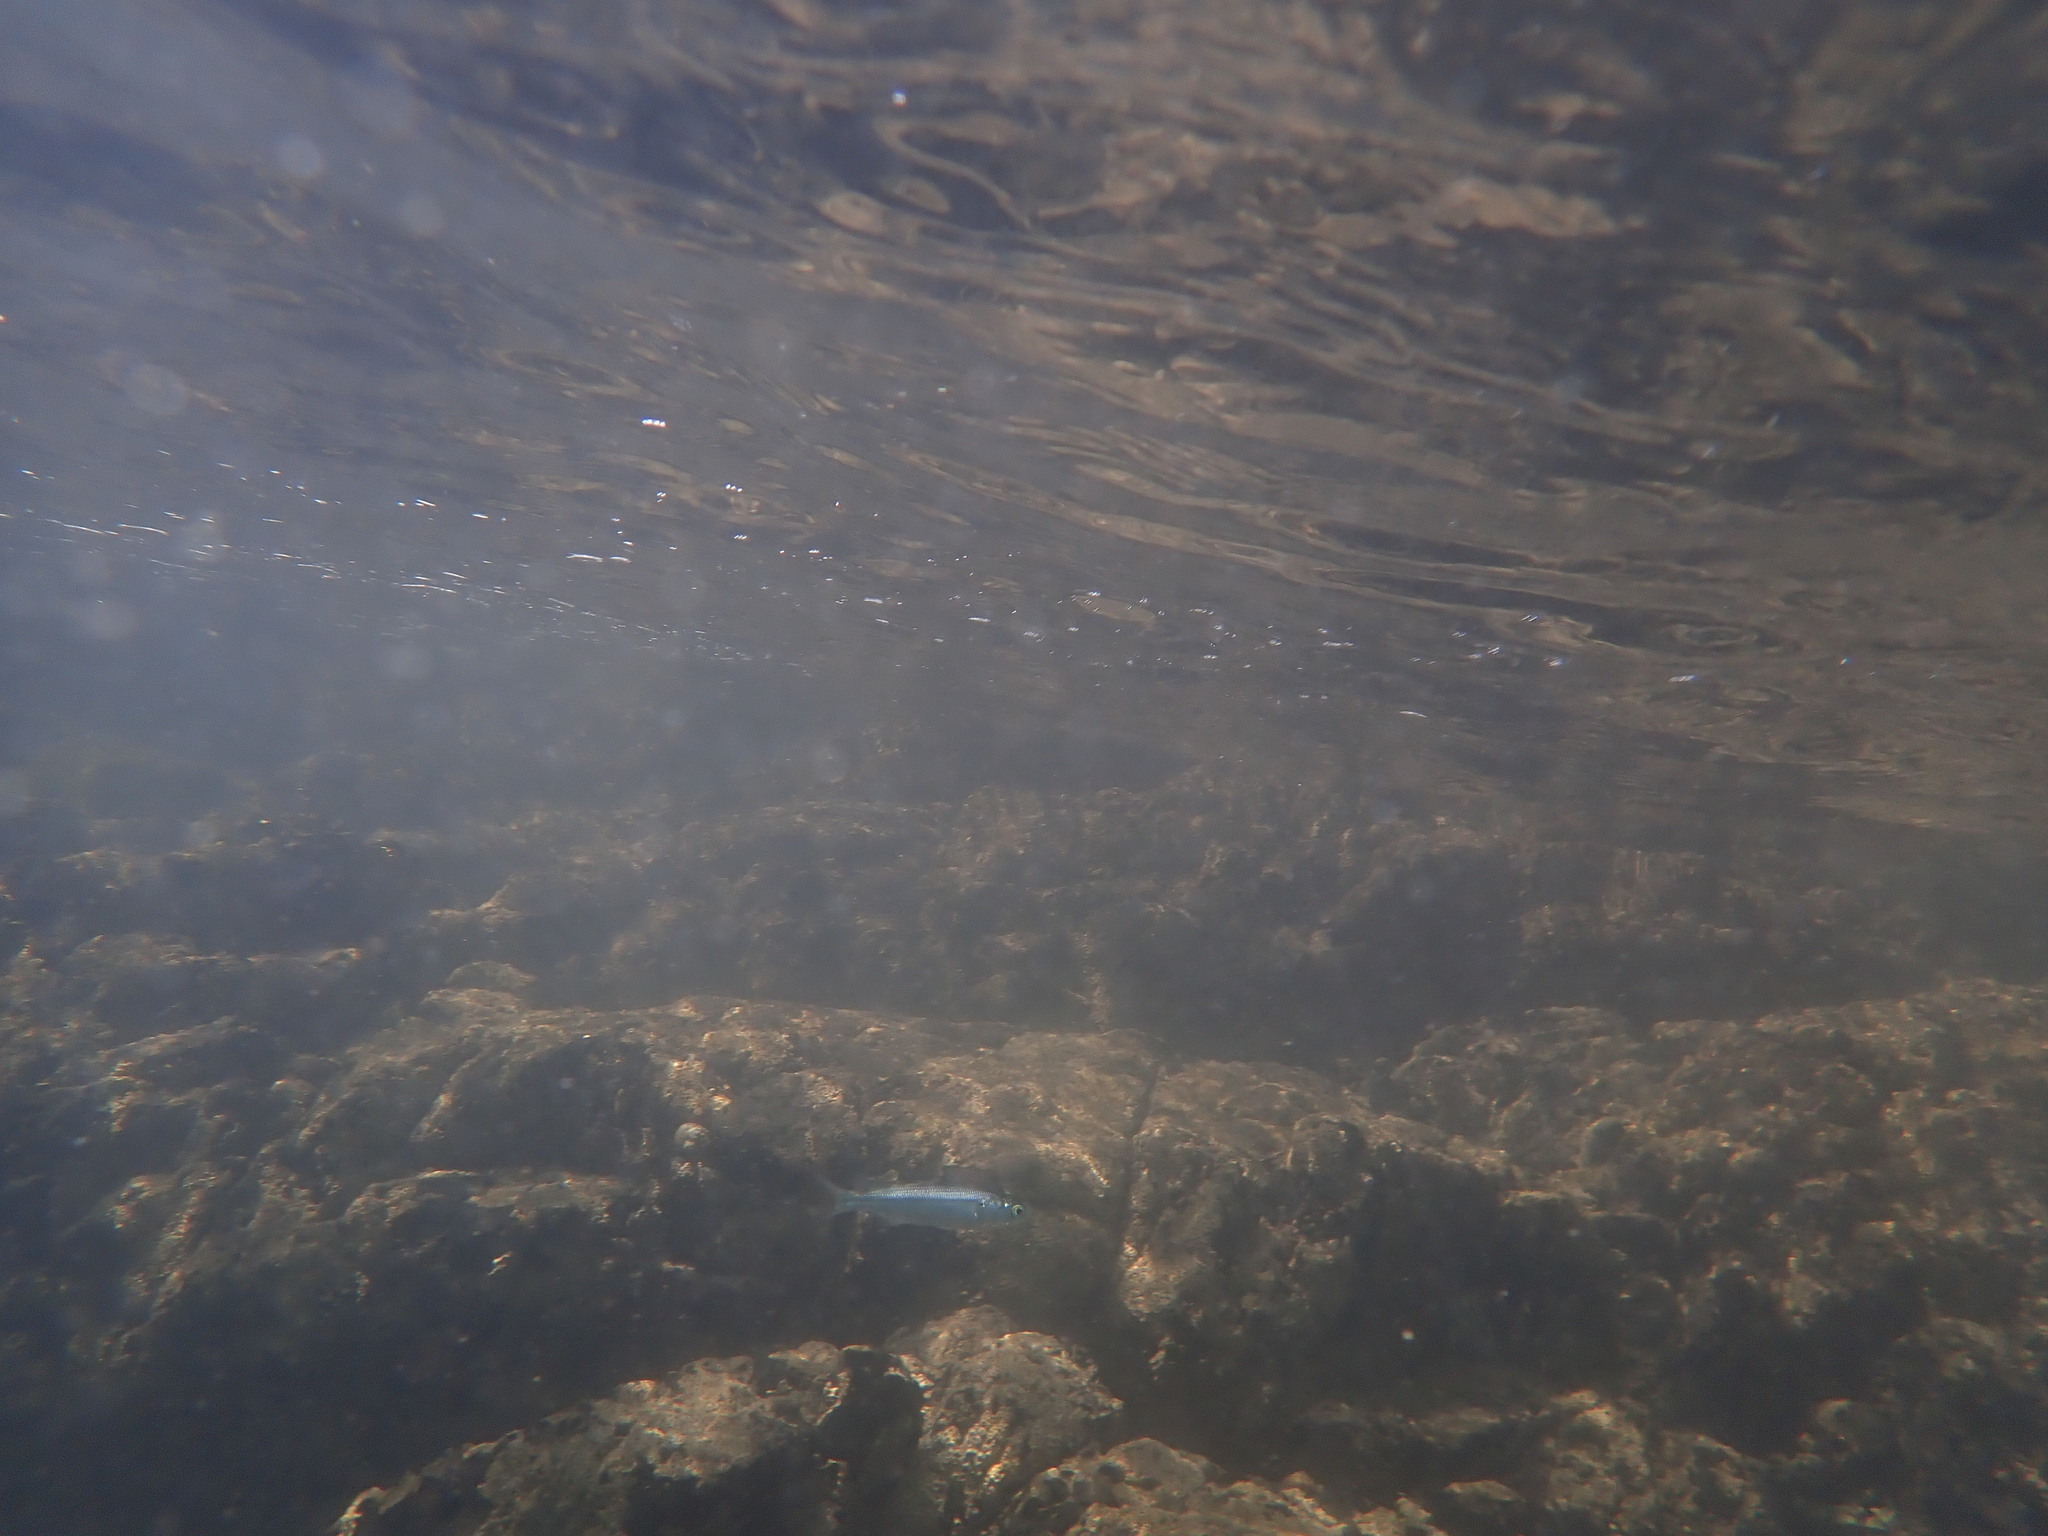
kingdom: Animalia
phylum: Chordata
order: Mugiliformes
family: Mugilidae
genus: Aldrichetta
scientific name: Aldrichetta forsteri
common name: Yellow-eye mullet
